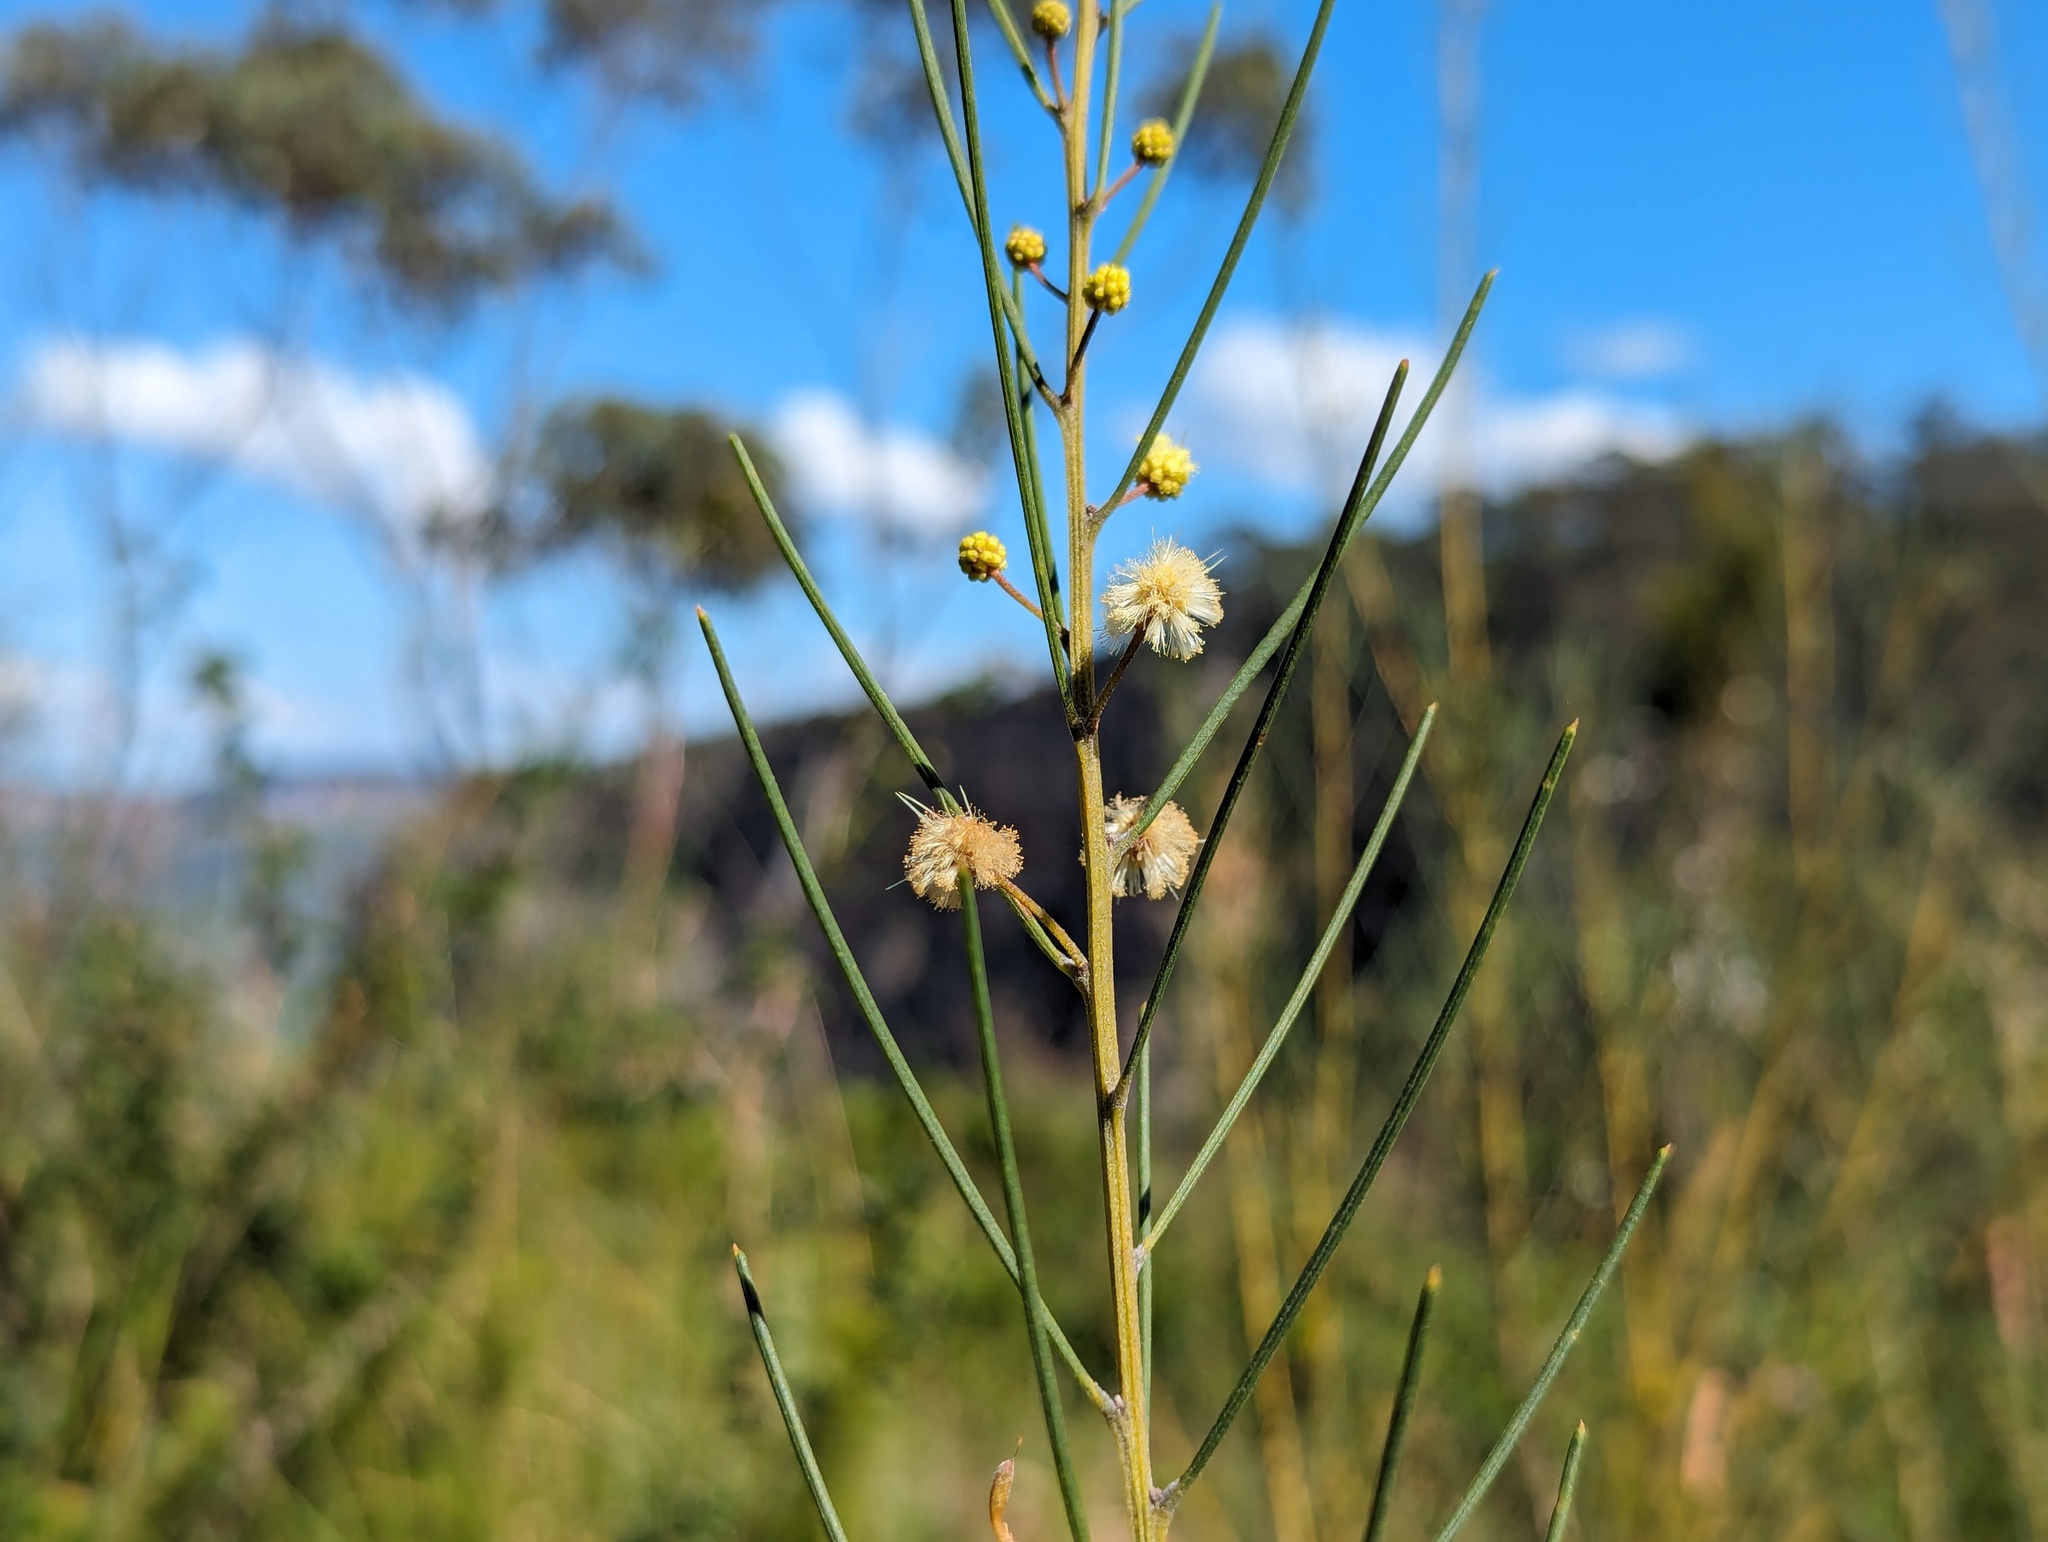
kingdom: Plantae
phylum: Tracheophyta
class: Magnoliopsida
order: Fabales
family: Fabaceae
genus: Acacia
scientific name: Acacia ptychoclada
